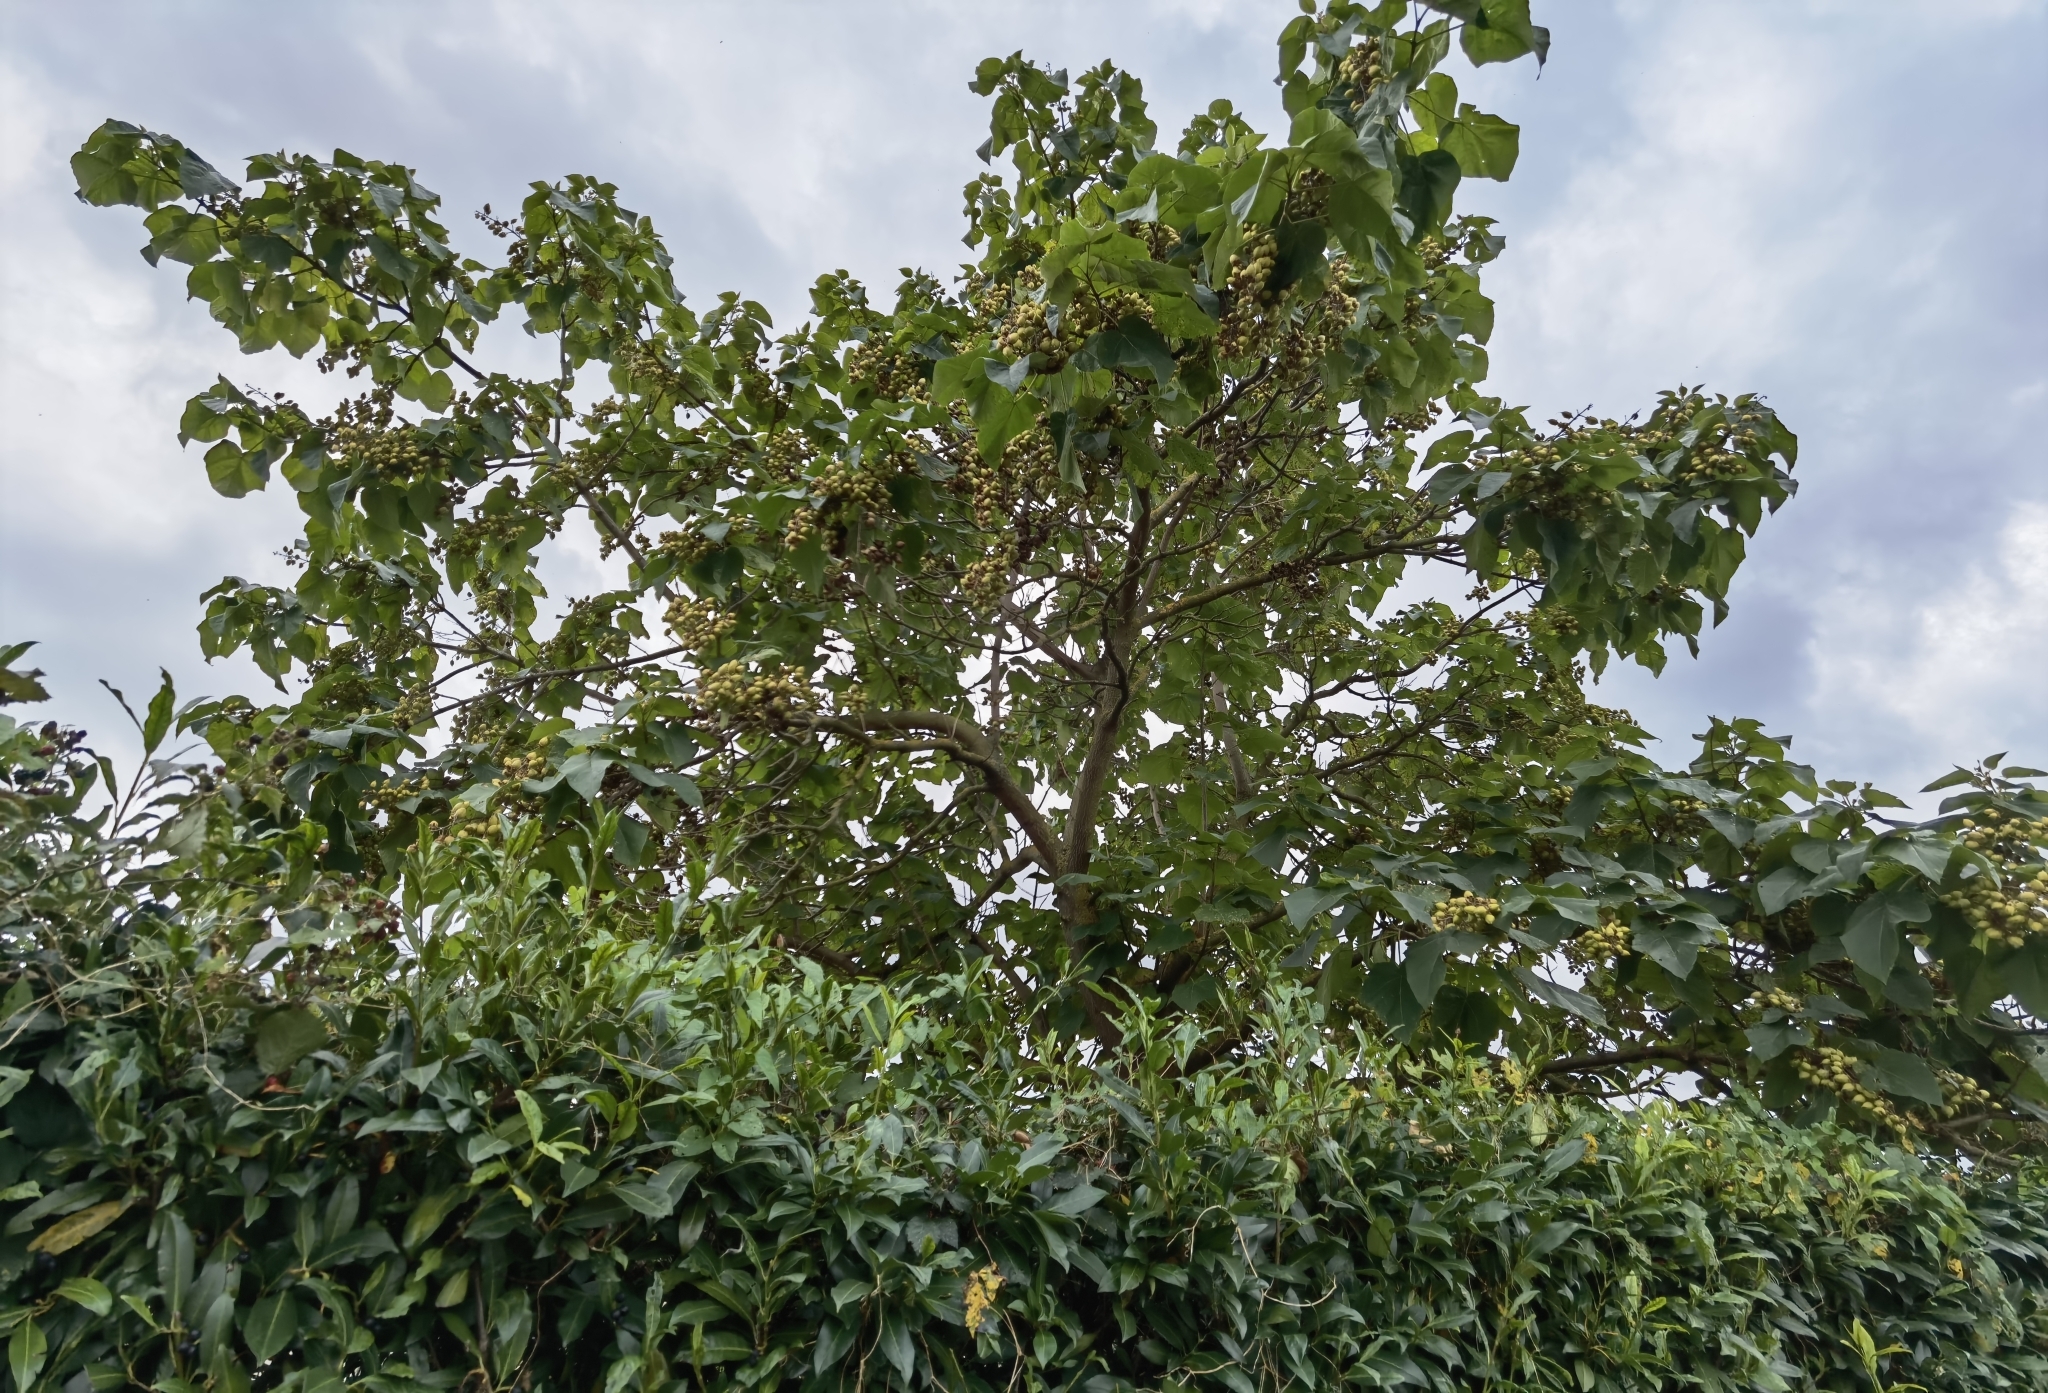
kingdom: Plantae
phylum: Tracheophyta
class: Magnoliopsida
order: Lamiales
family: Paulowniaceae
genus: Paulownia
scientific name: Paulownia tomentosa
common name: Foxglove-tree
